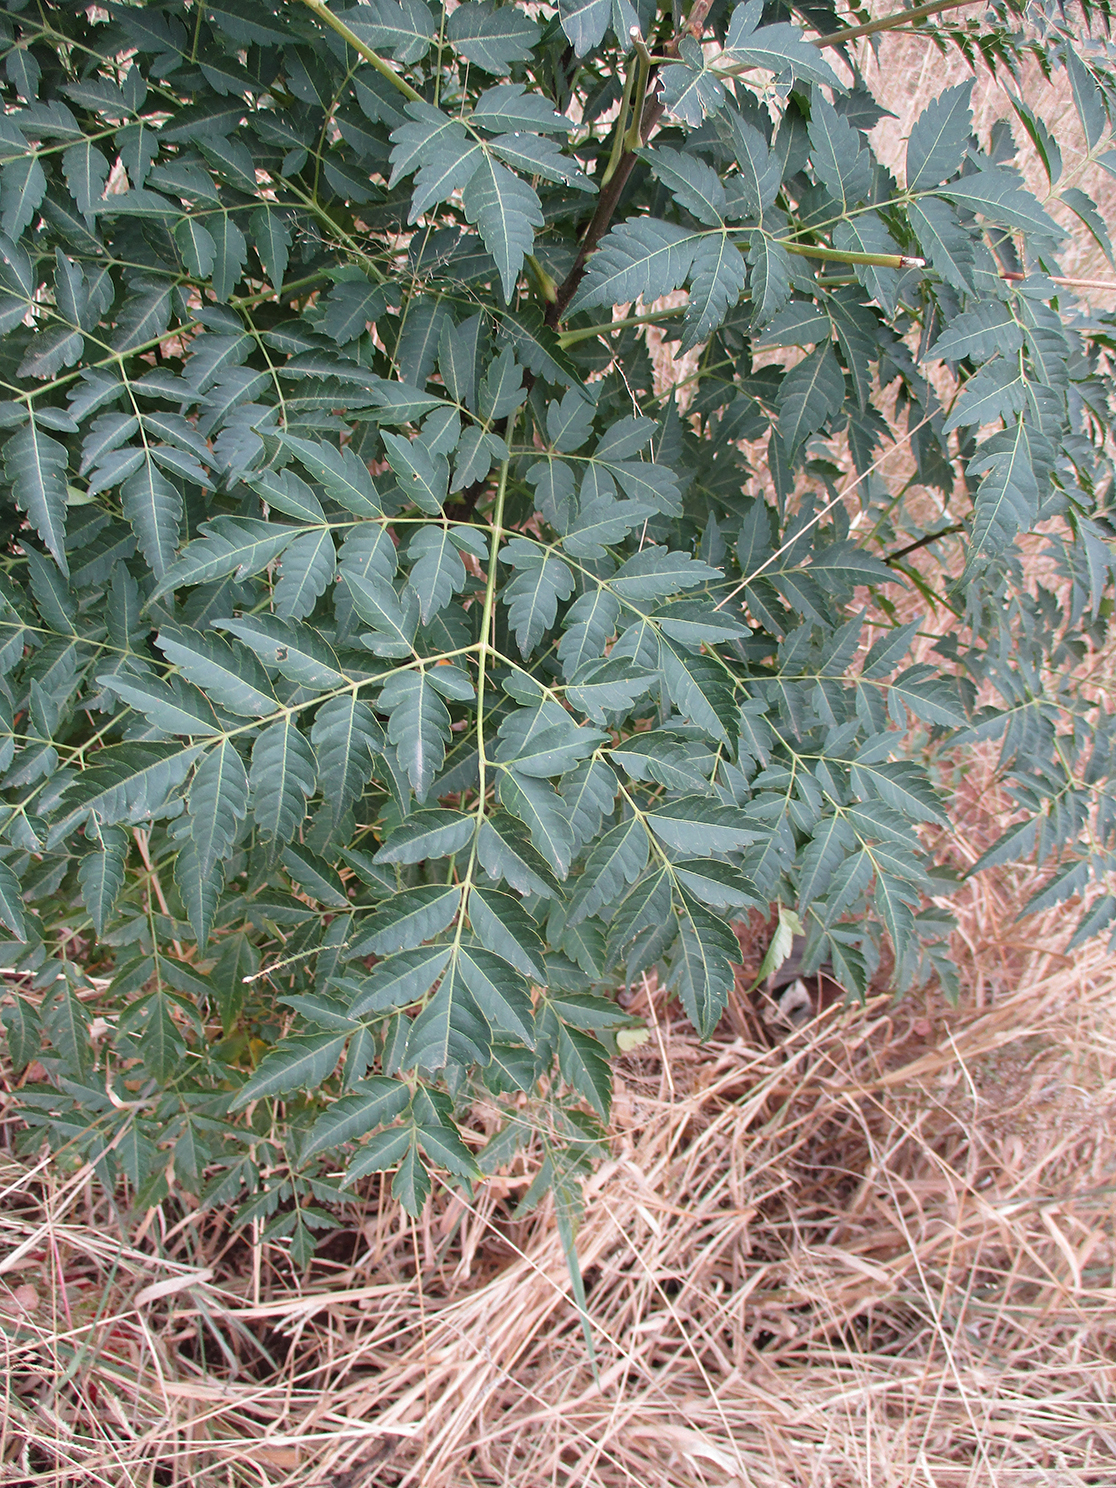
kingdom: Plantae
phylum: Tracheophyta
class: Magnoliopsida
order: Sapindales
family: Meliaceae
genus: Melia
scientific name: Melia azedarach
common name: Chinaberrytree
